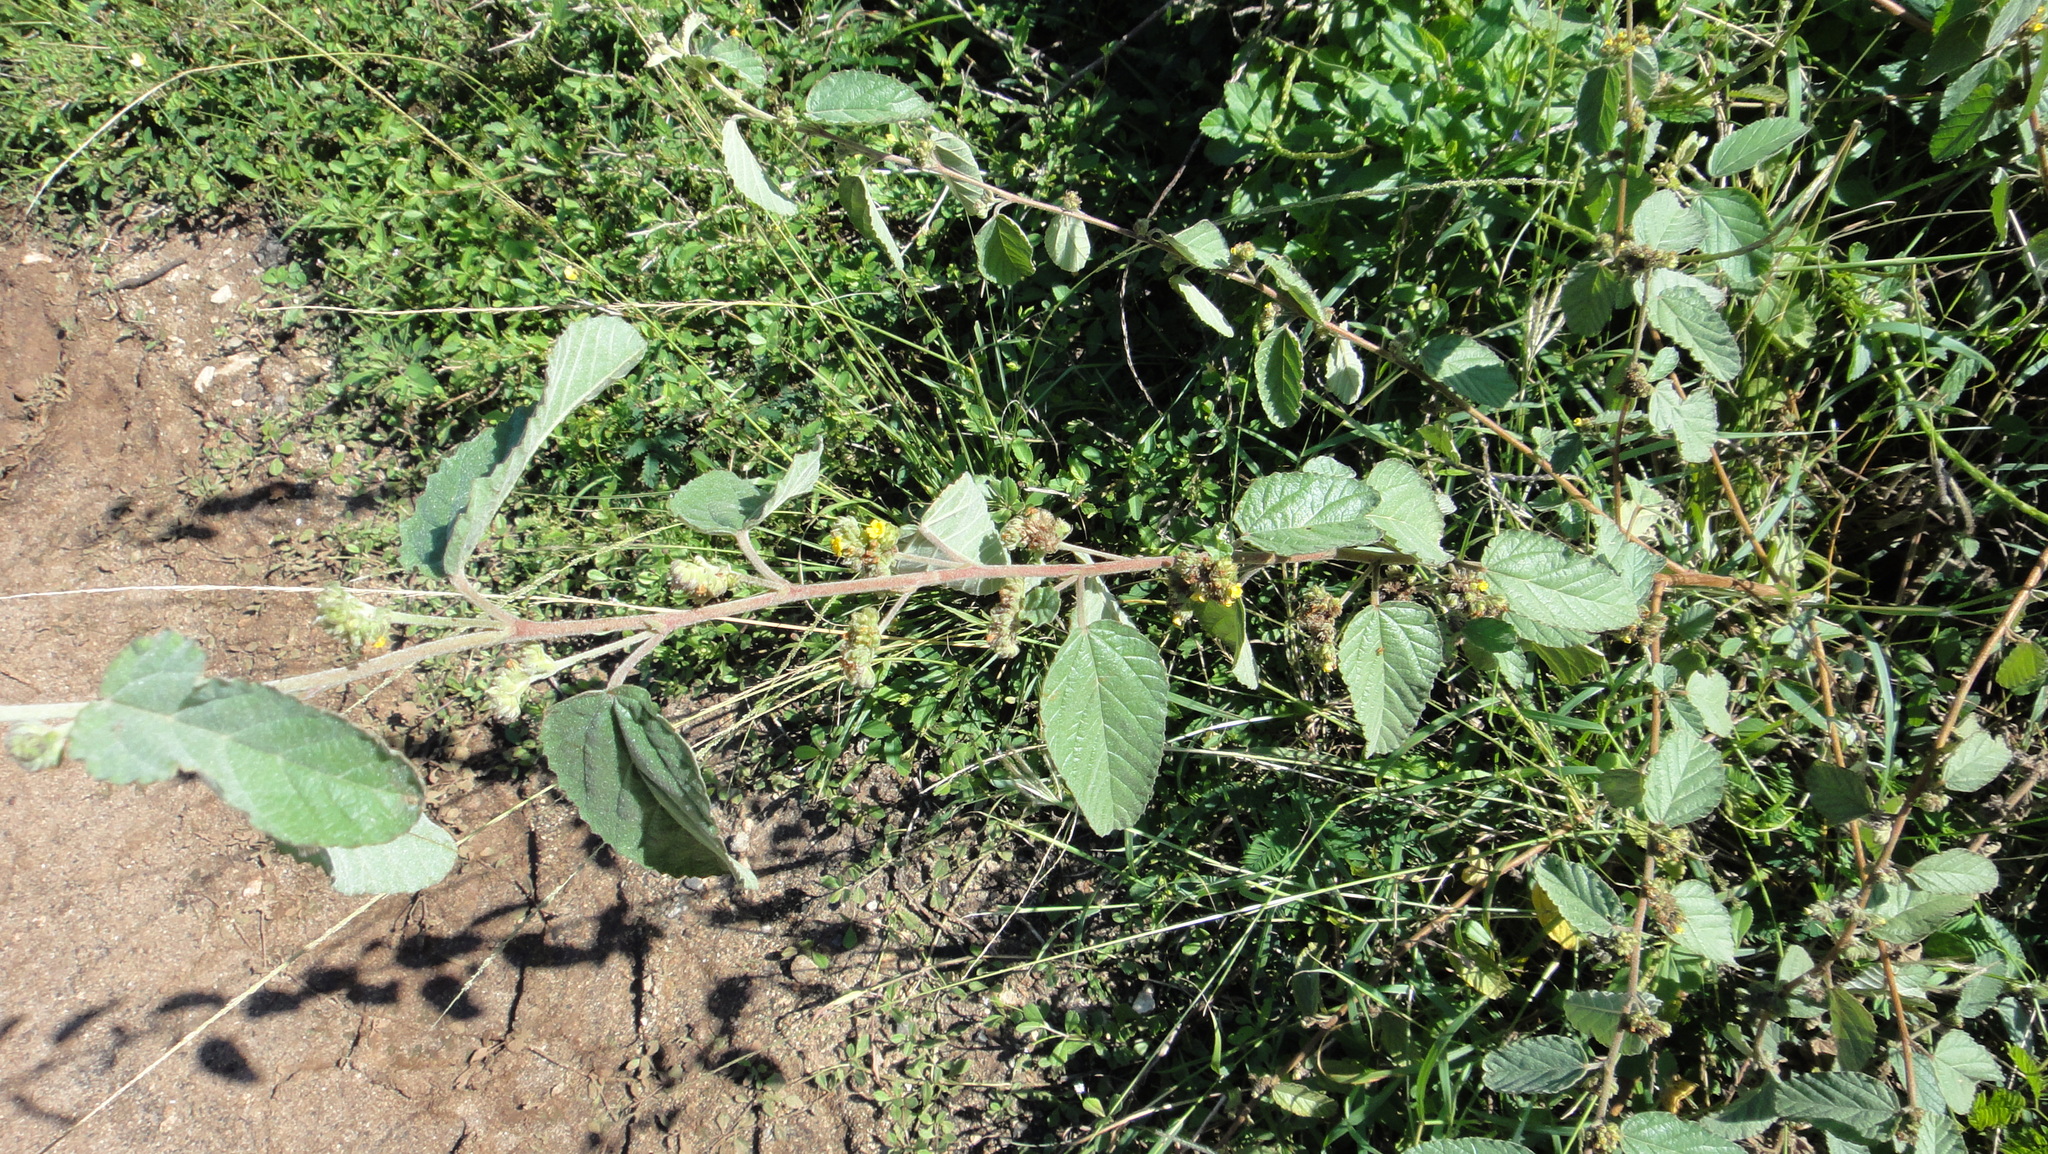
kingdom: Plantae
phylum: Tracheophyta
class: Magnoliopsida
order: Malvales
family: Malvaceae
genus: Waltheria
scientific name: Waltheria indica
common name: Leather-coat
